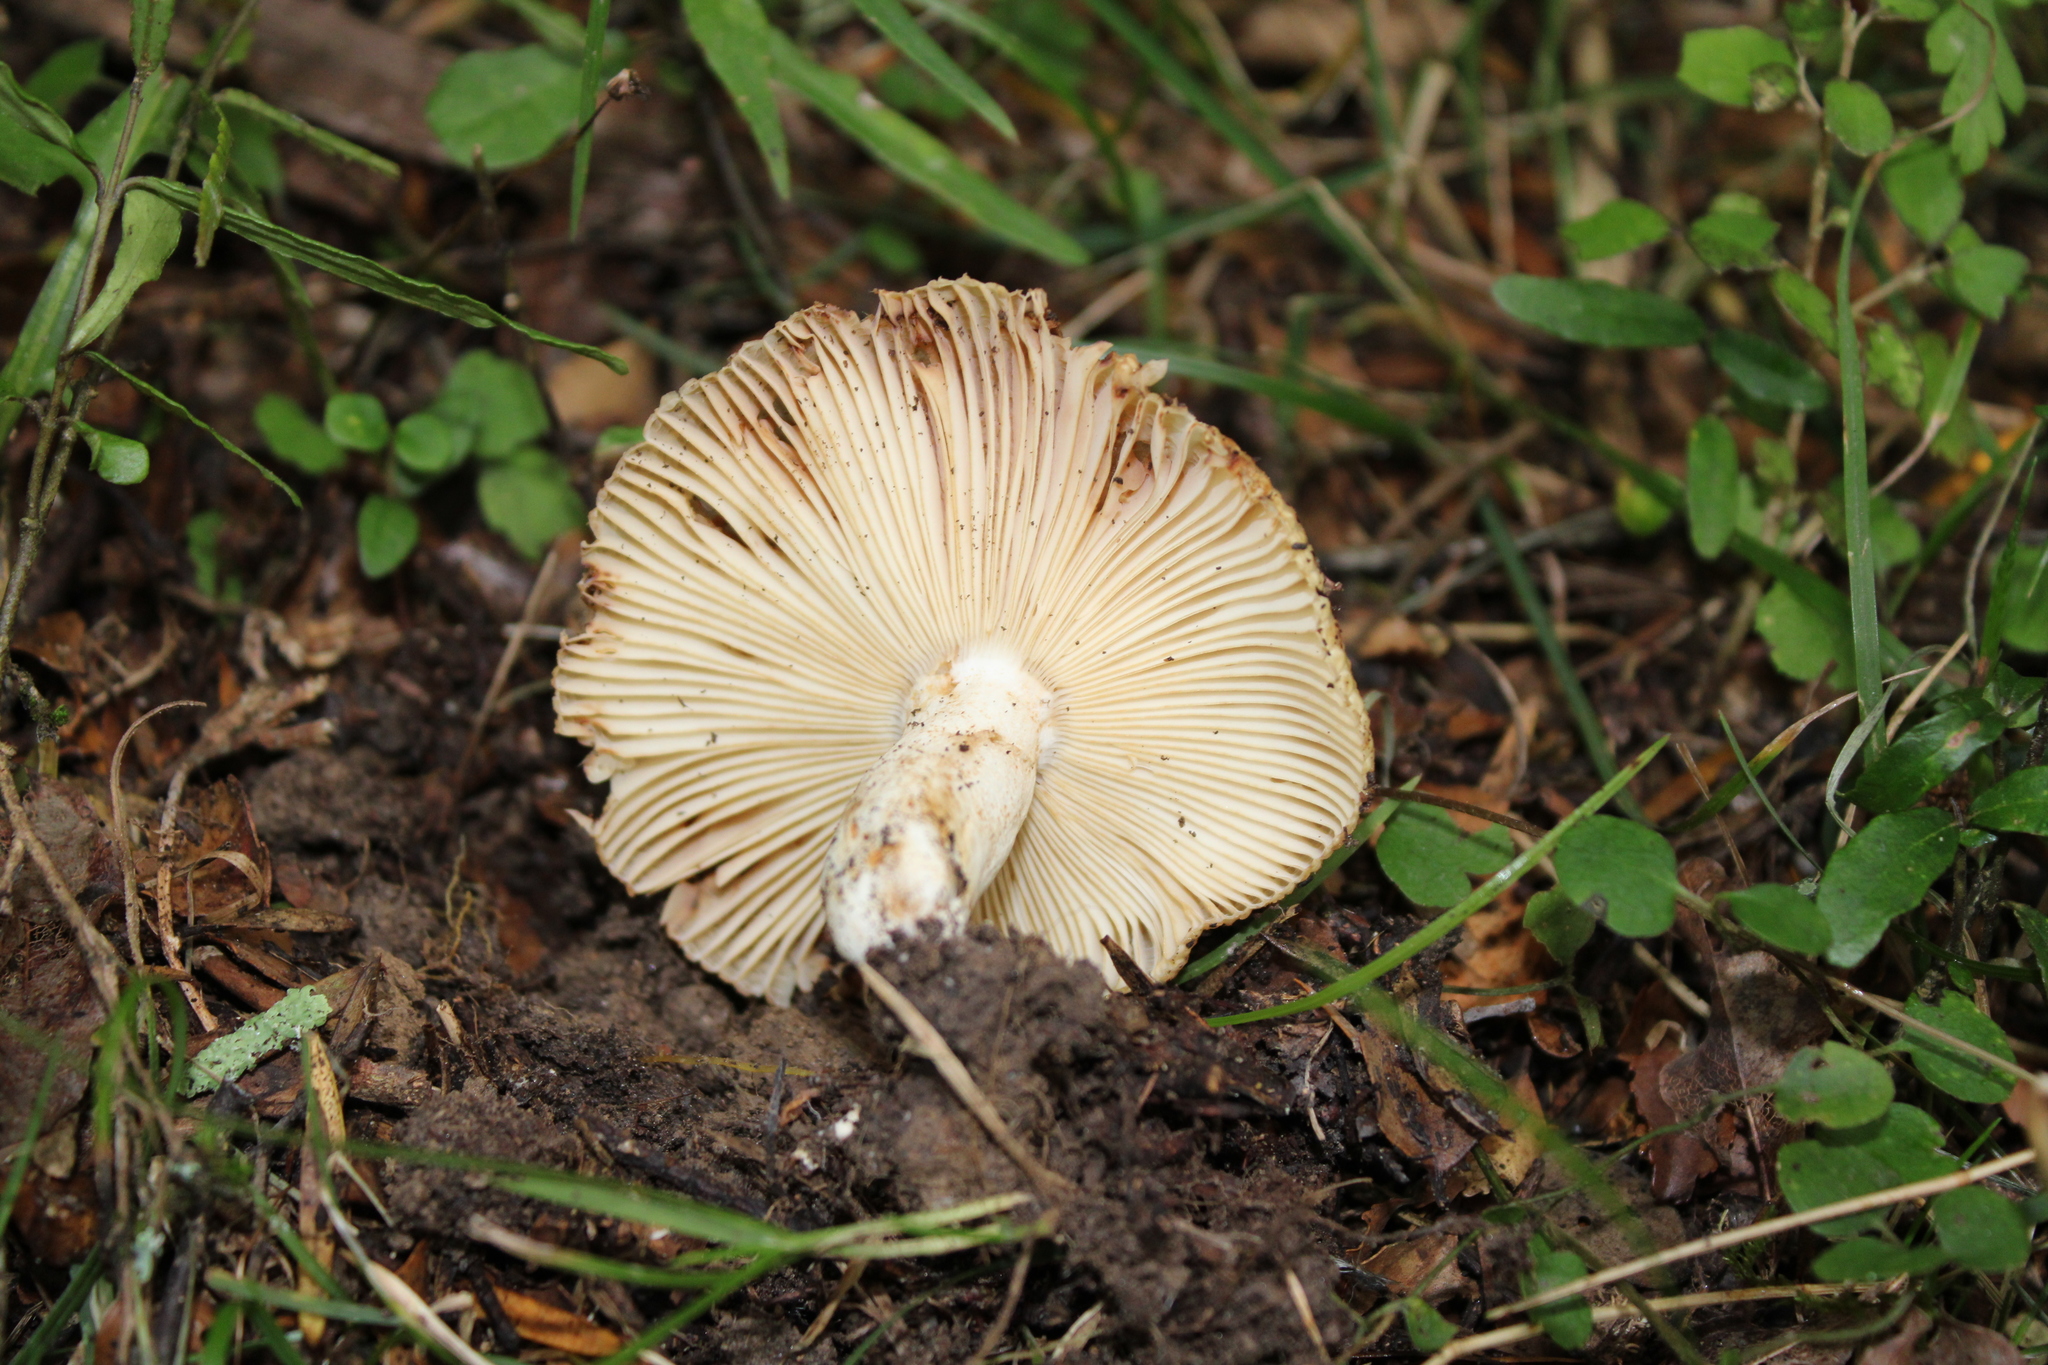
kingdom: Fungi
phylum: Basidiomycota
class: Agaricomycetes
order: Russulales
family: Russulaceae
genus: Russula
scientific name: Russula novae-zelandiae
